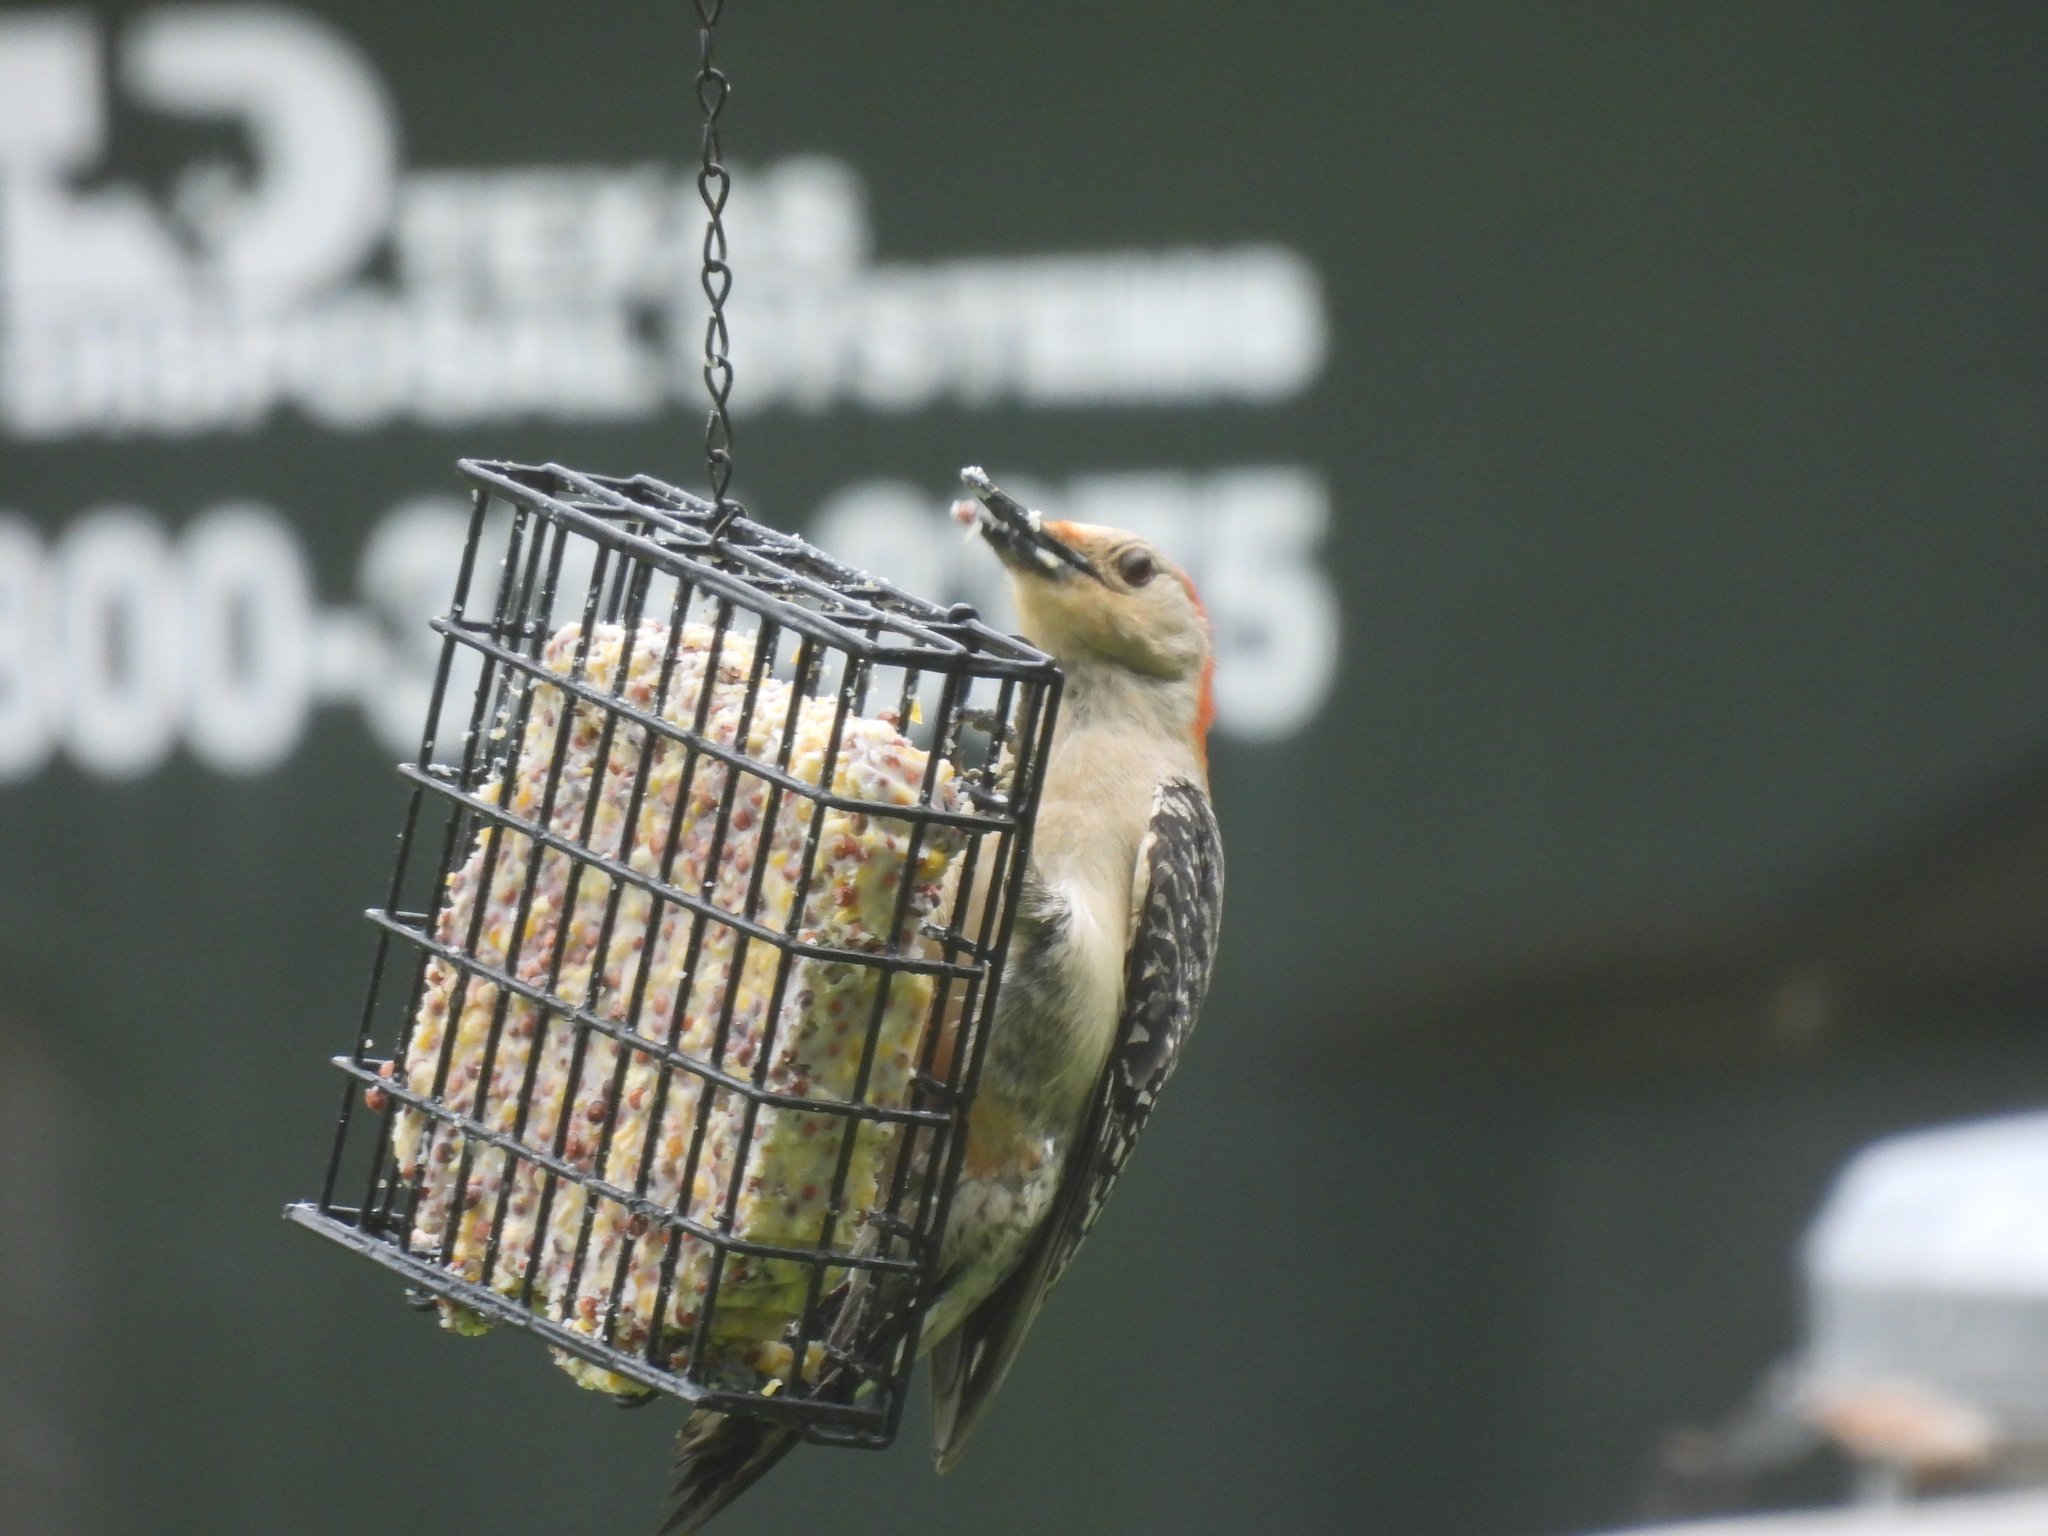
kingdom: Animalia
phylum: Chordata
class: Aves
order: Piciformes
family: Picidae
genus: Melanerpes
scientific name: Melanerpes carolinus
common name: Red-bellied woodpecker
